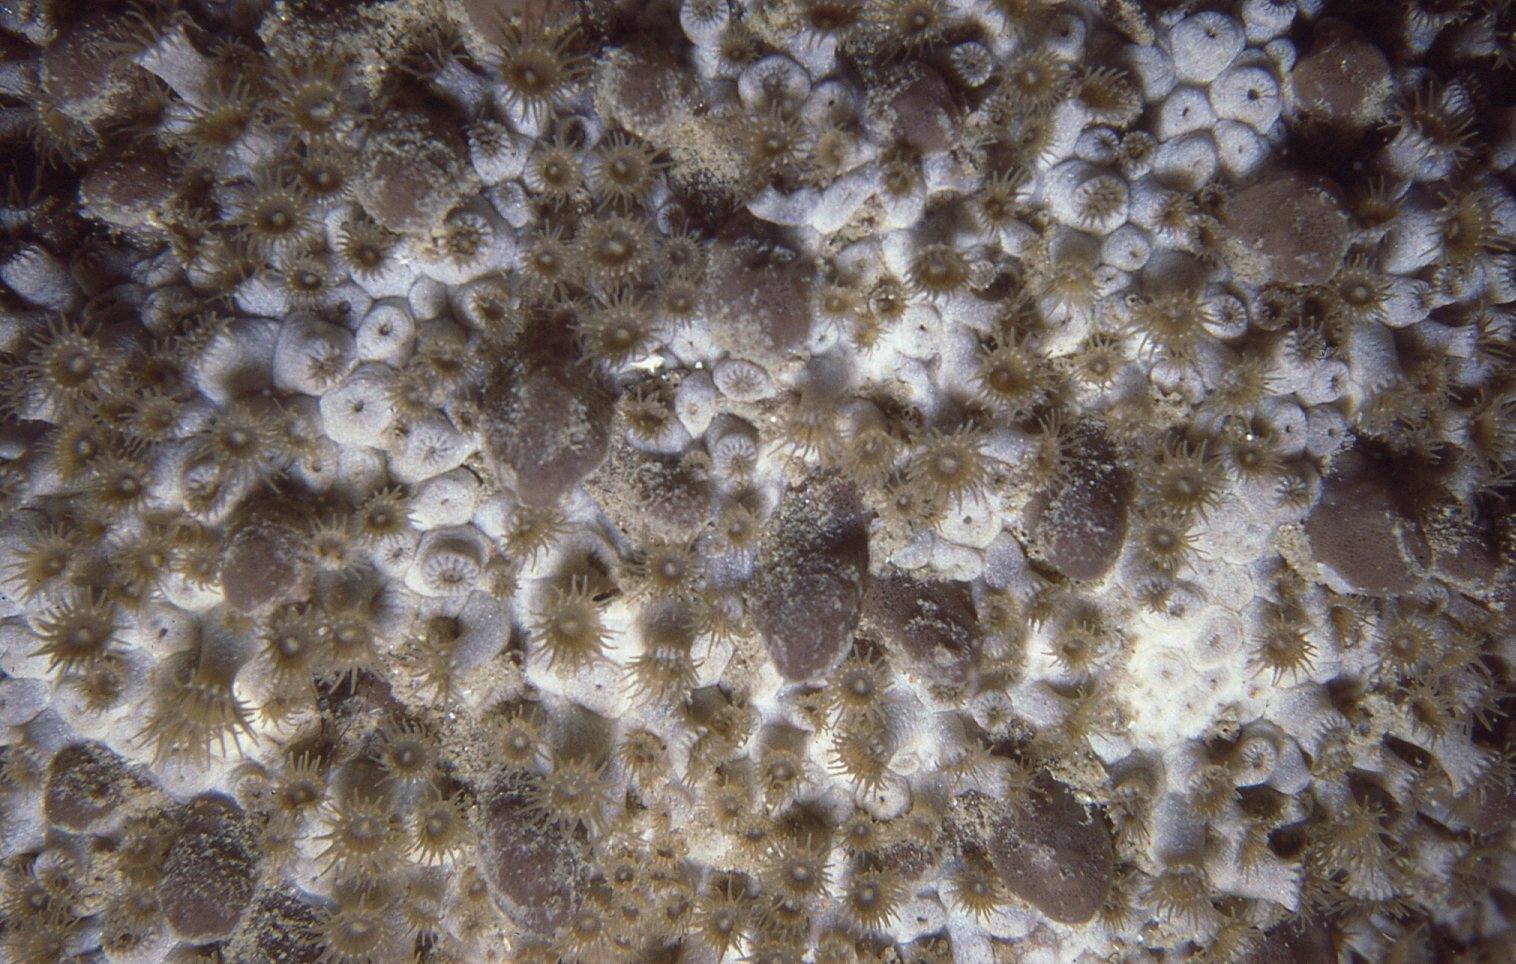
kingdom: Animalia
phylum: Cnidaria
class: Anthozoa
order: Zoantharia
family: Epizoanthidae
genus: Epizoanthus
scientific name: Epizoanthus sabulosus
